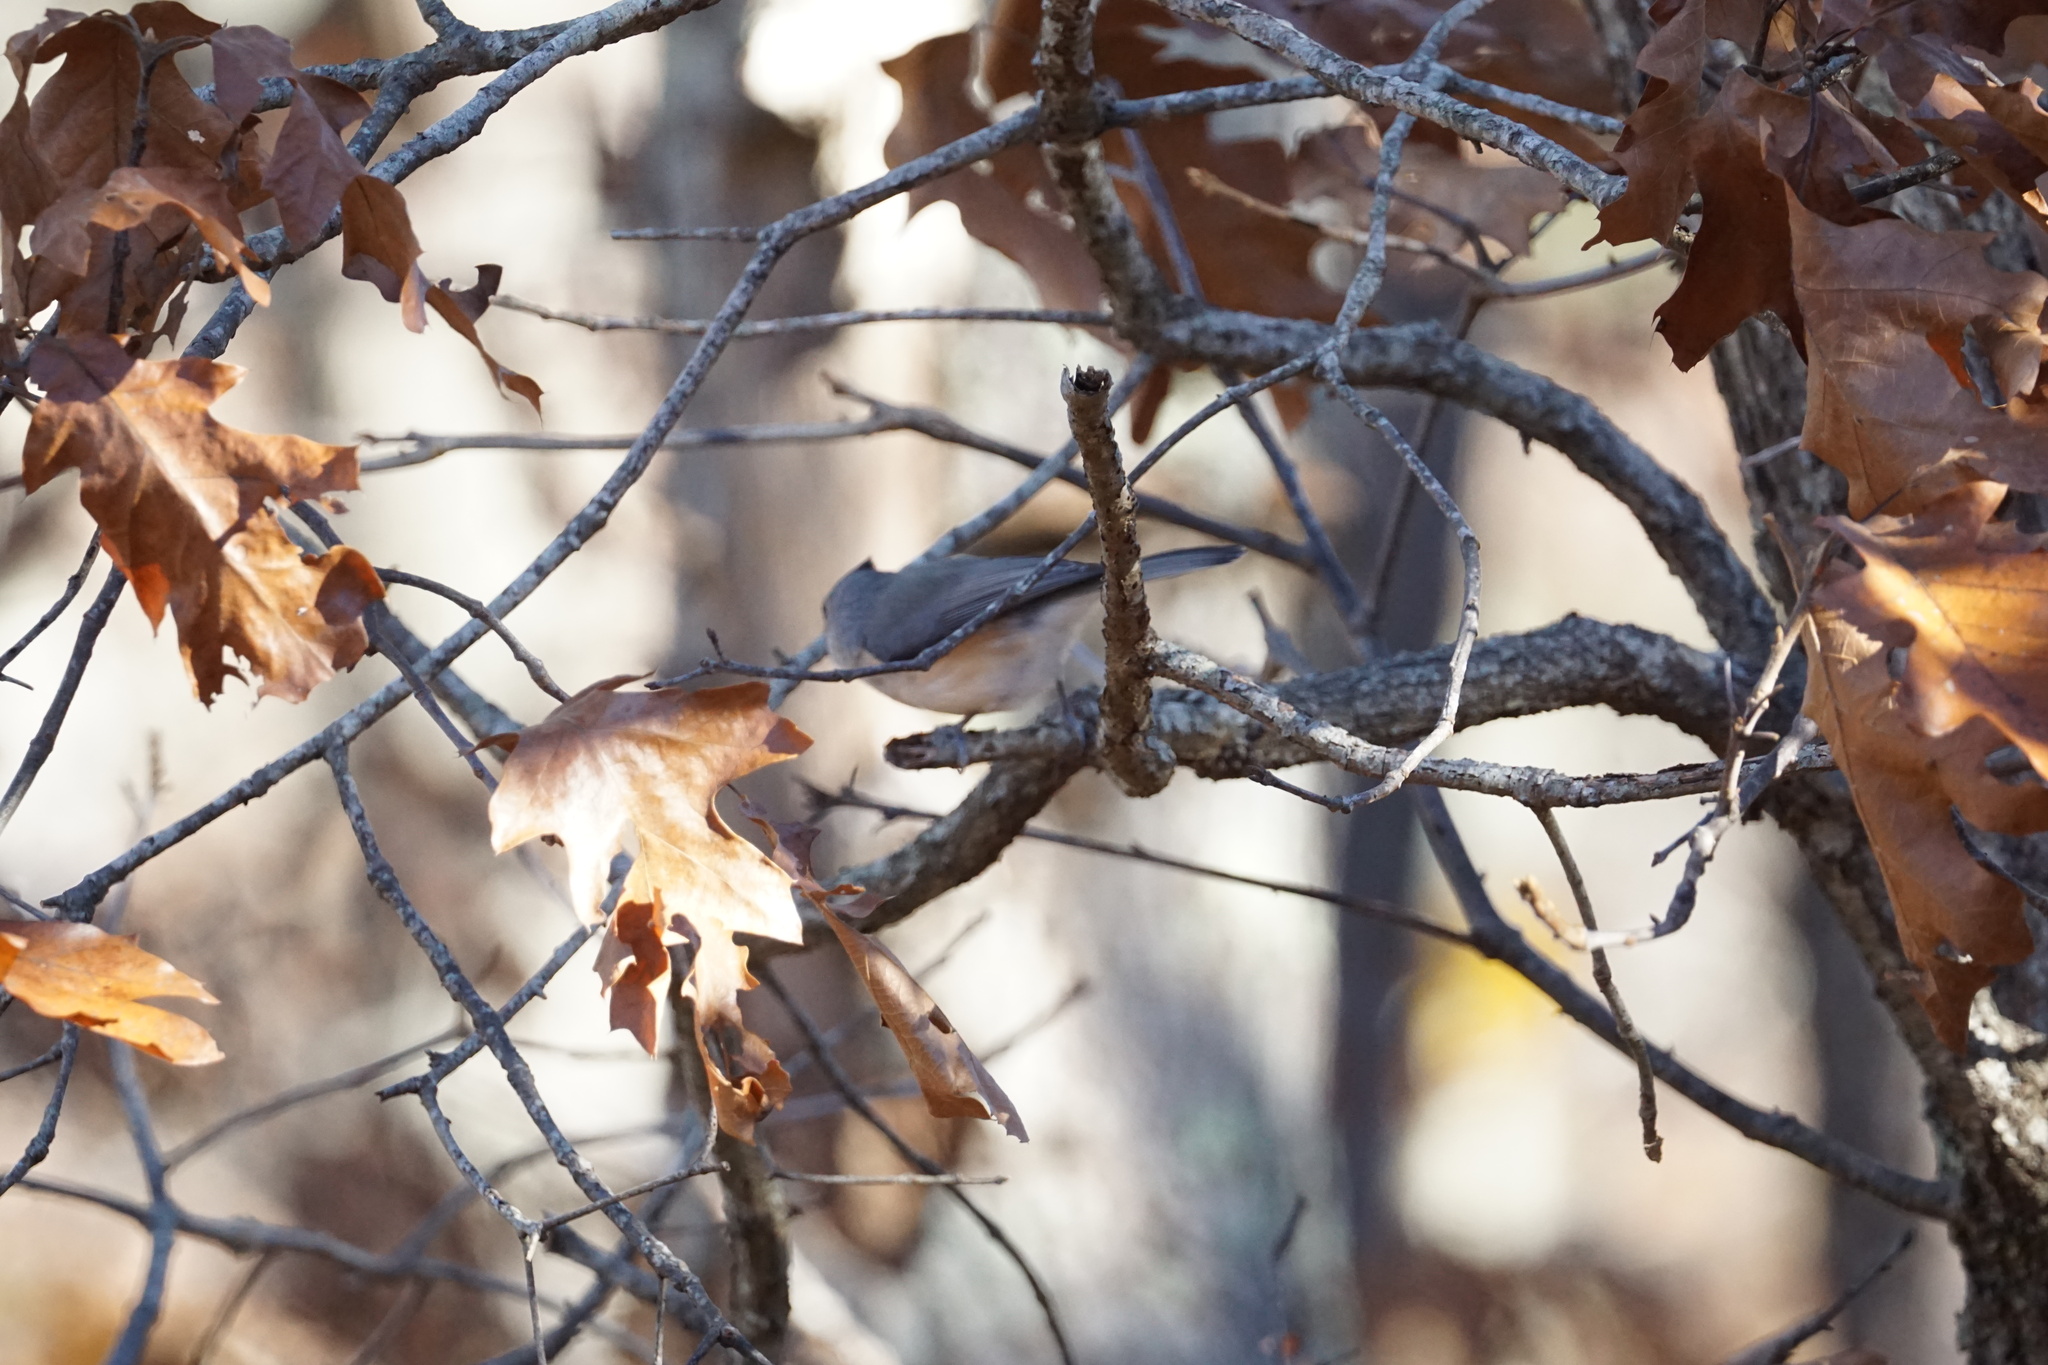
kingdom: Animalia
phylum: Chordata
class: Aves
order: Passeriformes
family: Paridae
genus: Baeolophus
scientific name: Baeolophus bicolor
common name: Tufted titmouse
